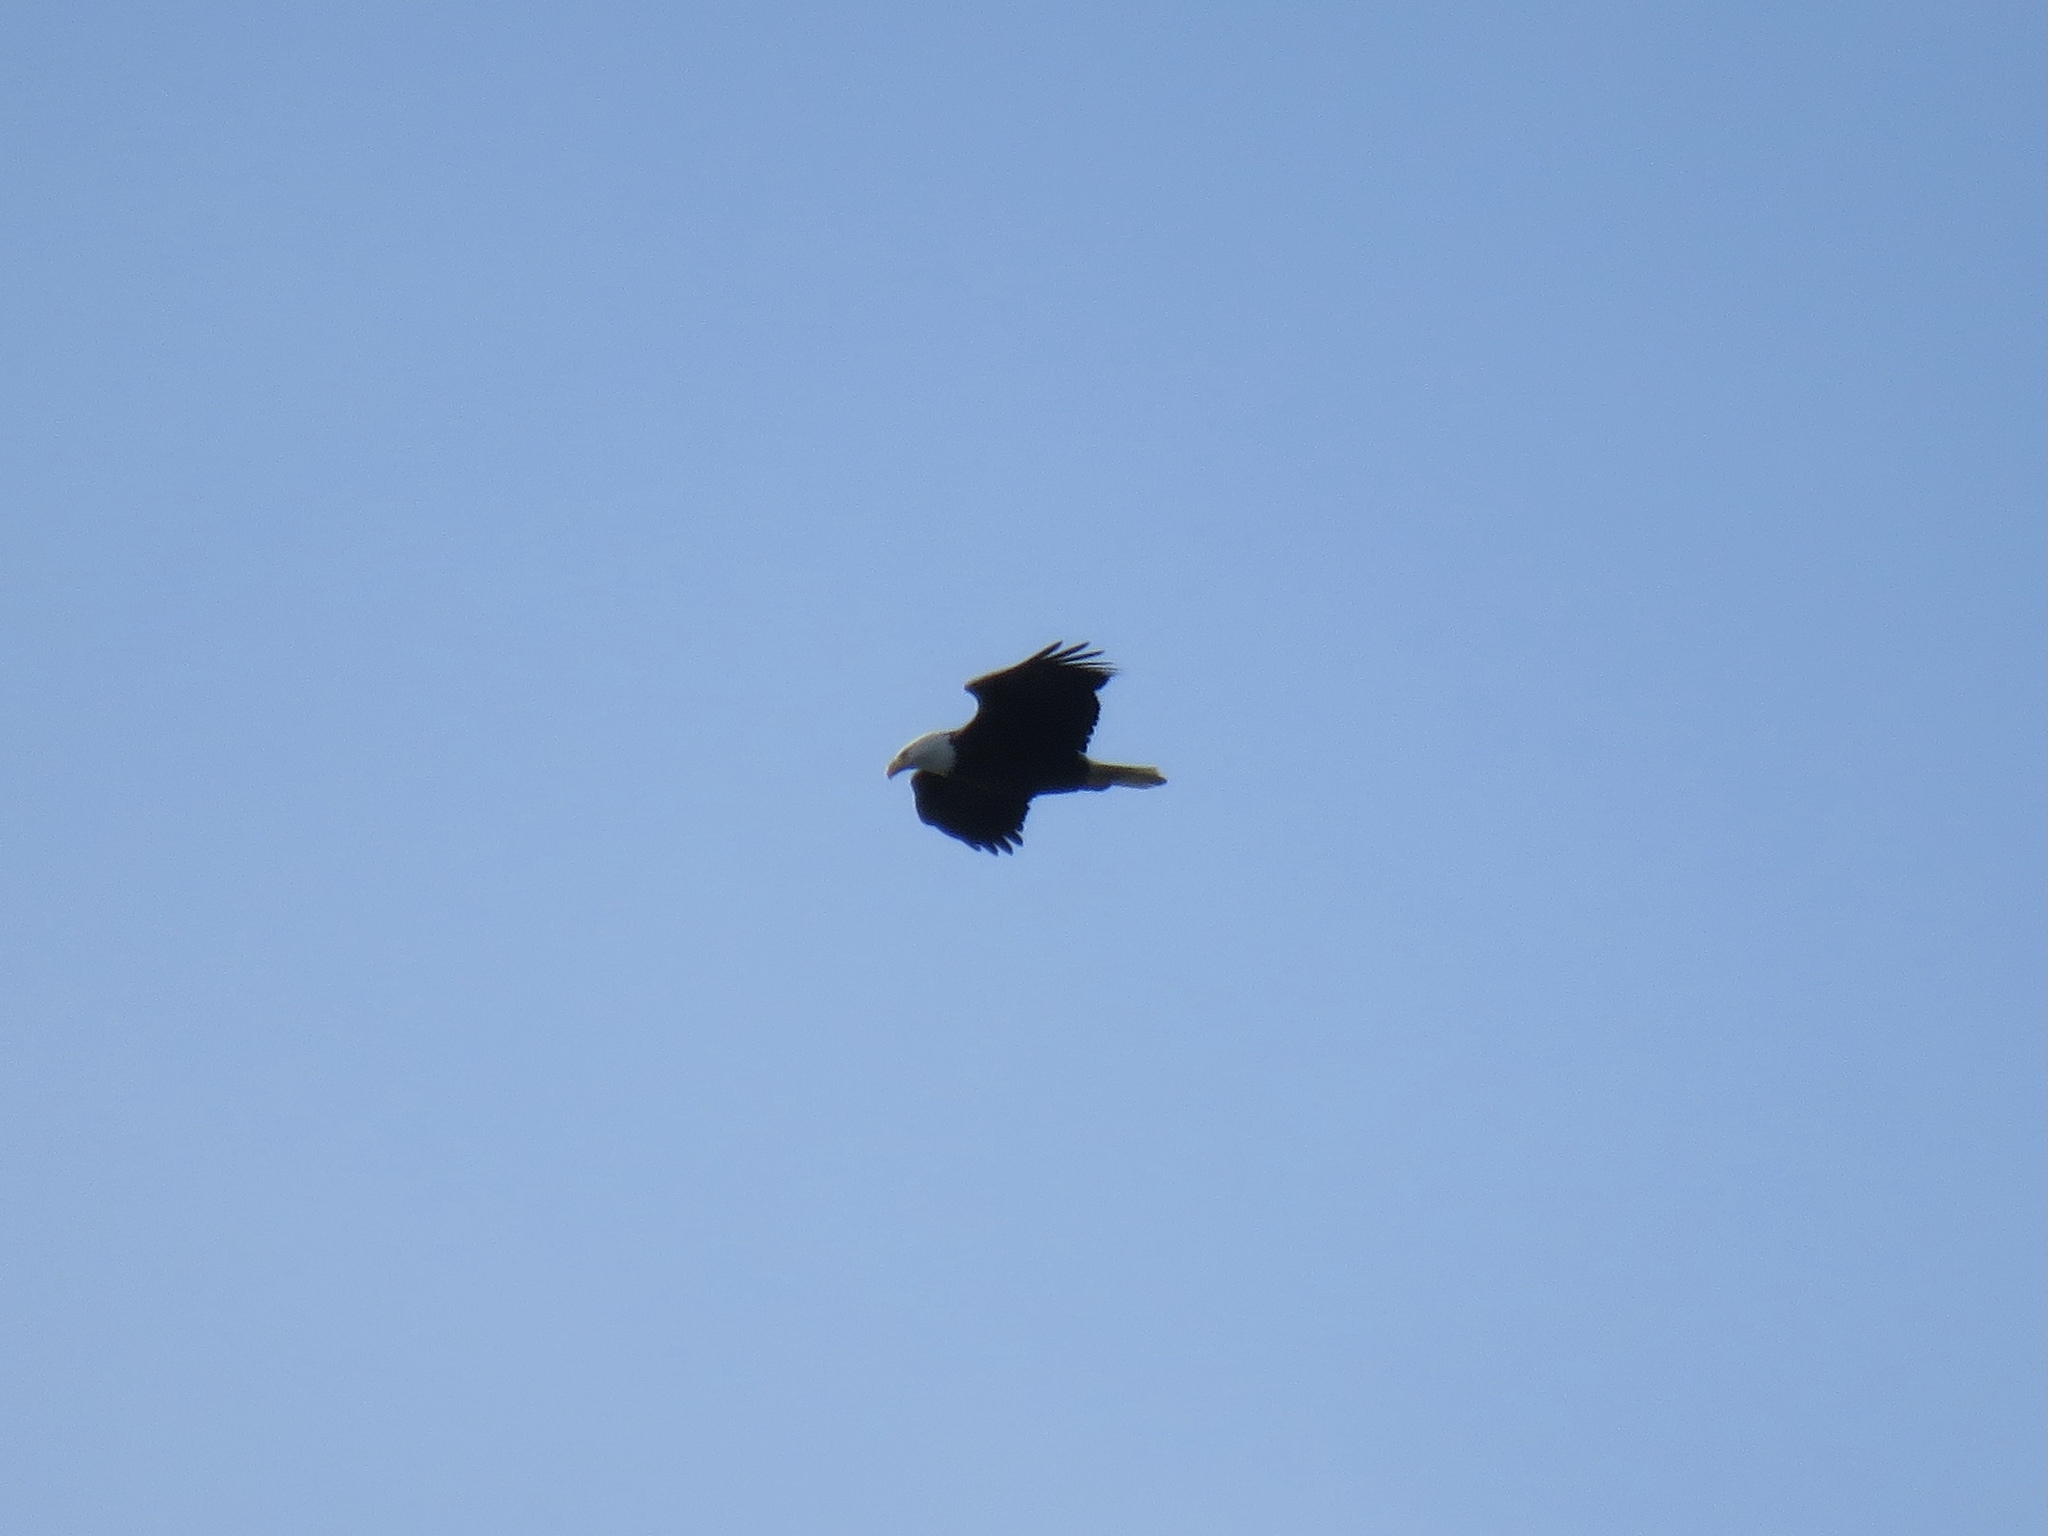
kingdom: Animalia
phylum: Chordata
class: Aves
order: Accipitriformes
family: Accipitridae
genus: Haliaeetus
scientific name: Haliaeetus leucocephalus
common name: Bald eagle
